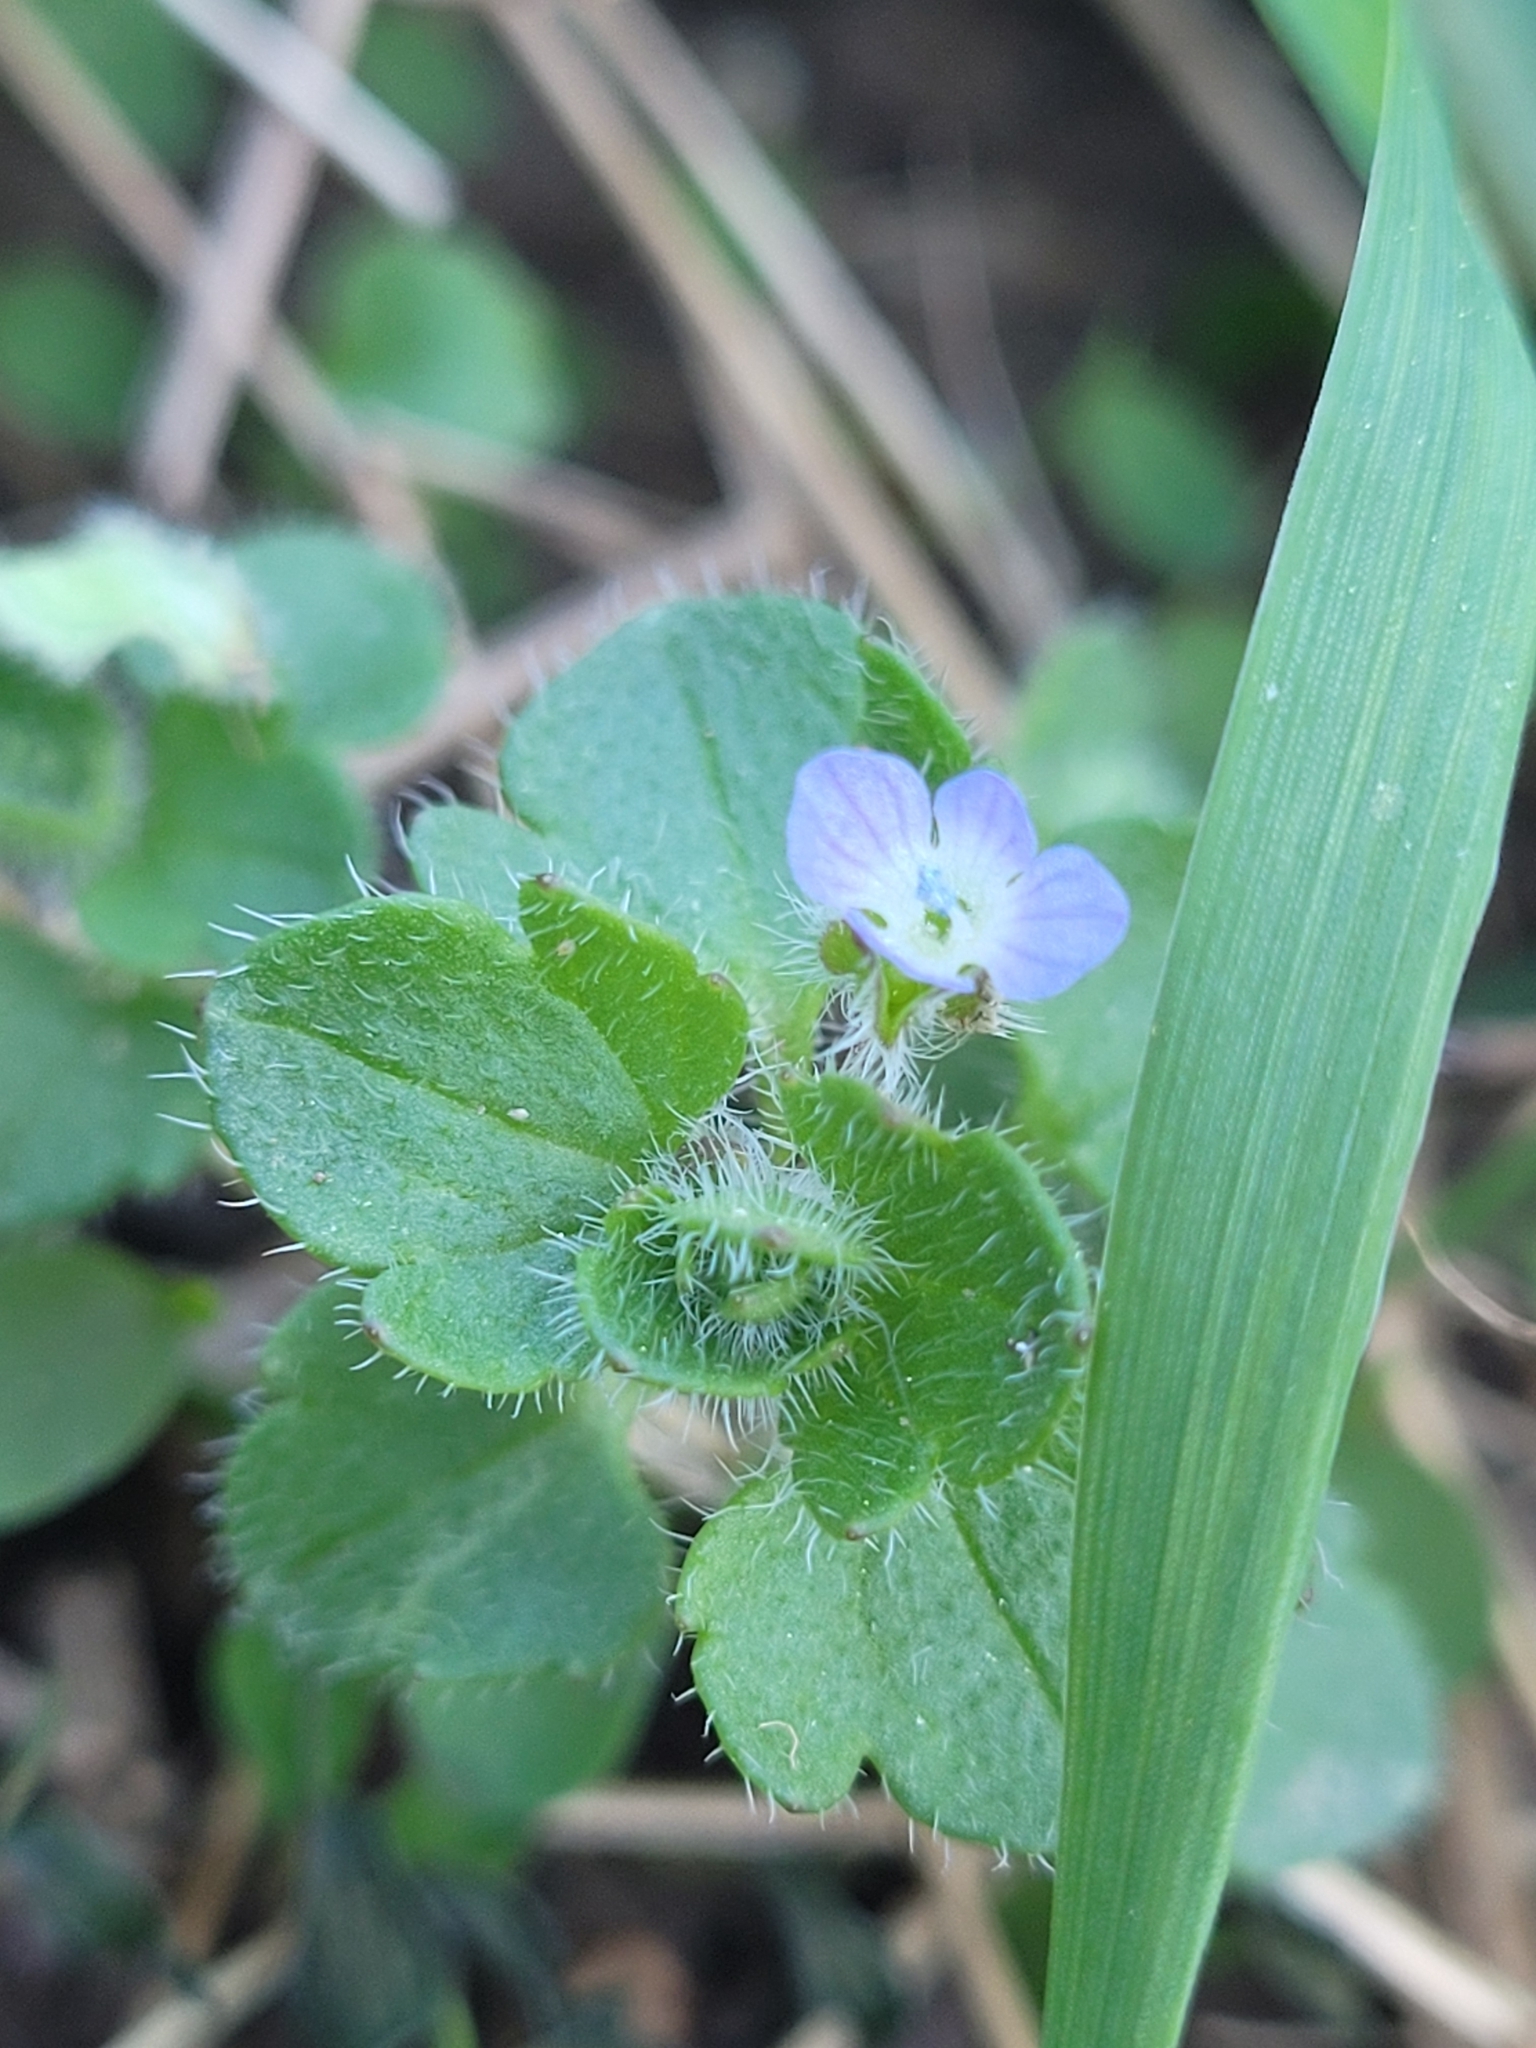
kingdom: Plantae
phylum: Tracheophyta
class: Magnoliopsida
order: Lamiales
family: Plantaginaceae
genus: Veronica
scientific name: Veronica hederifolia
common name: Ivy-leaved speedwell
